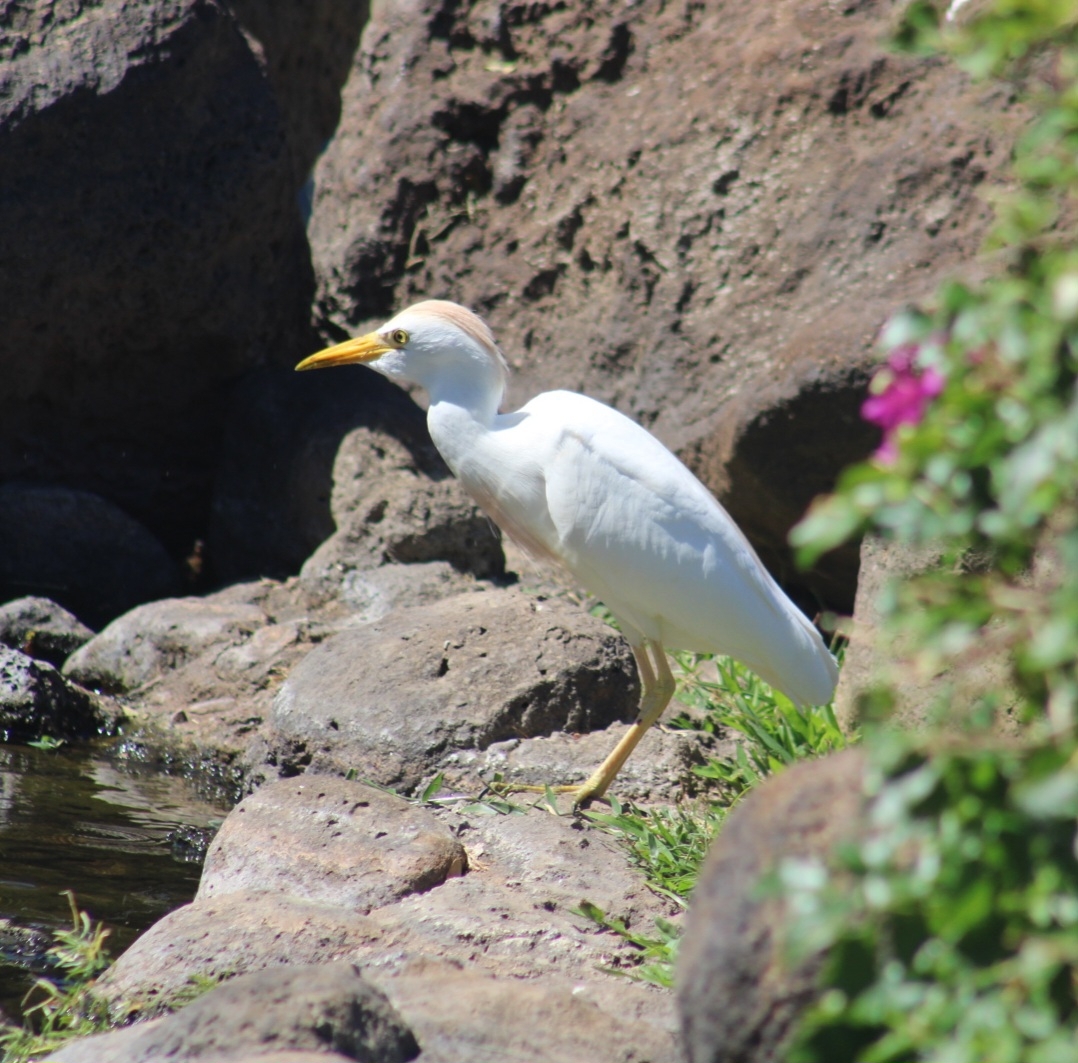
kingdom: Animalia
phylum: Chordata
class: Aves
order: Pelecaniformes
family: Ardeidae
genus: Bubulcus
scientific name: Bubulcus ibis
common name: Cattle egret
